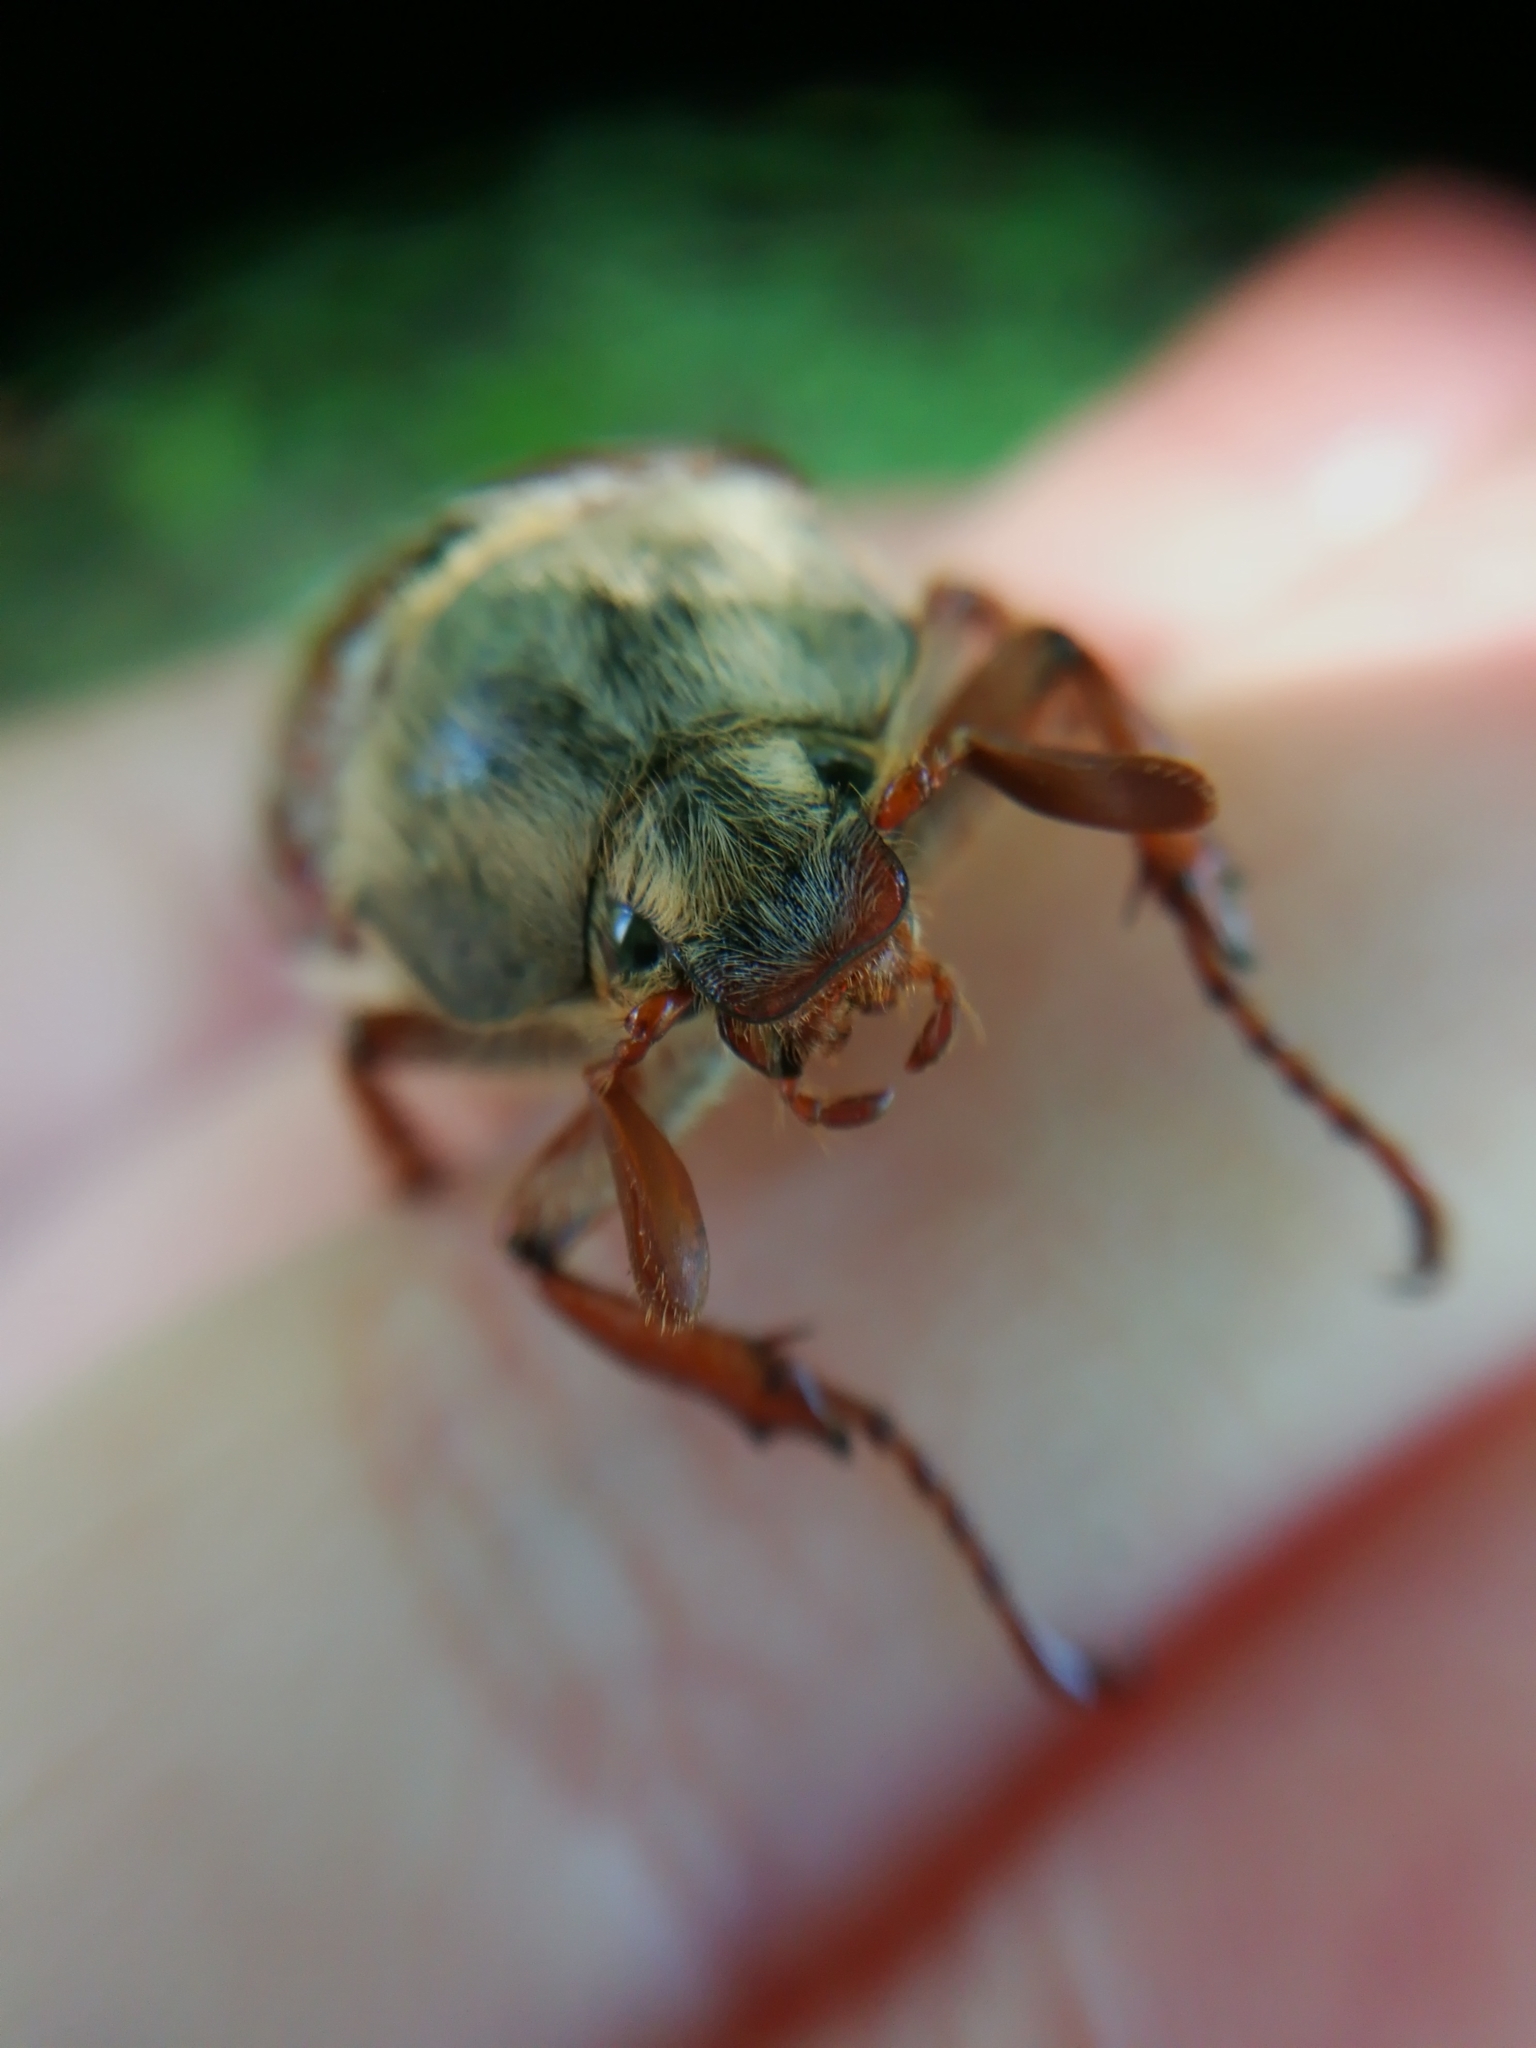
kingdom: Animalia
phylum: Arthropoda
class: Insecta
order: Coleoptera
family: Scarabaeidae
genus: Melolontha
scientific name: Melolontha melolontha
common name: Cockchafer maybeetle
